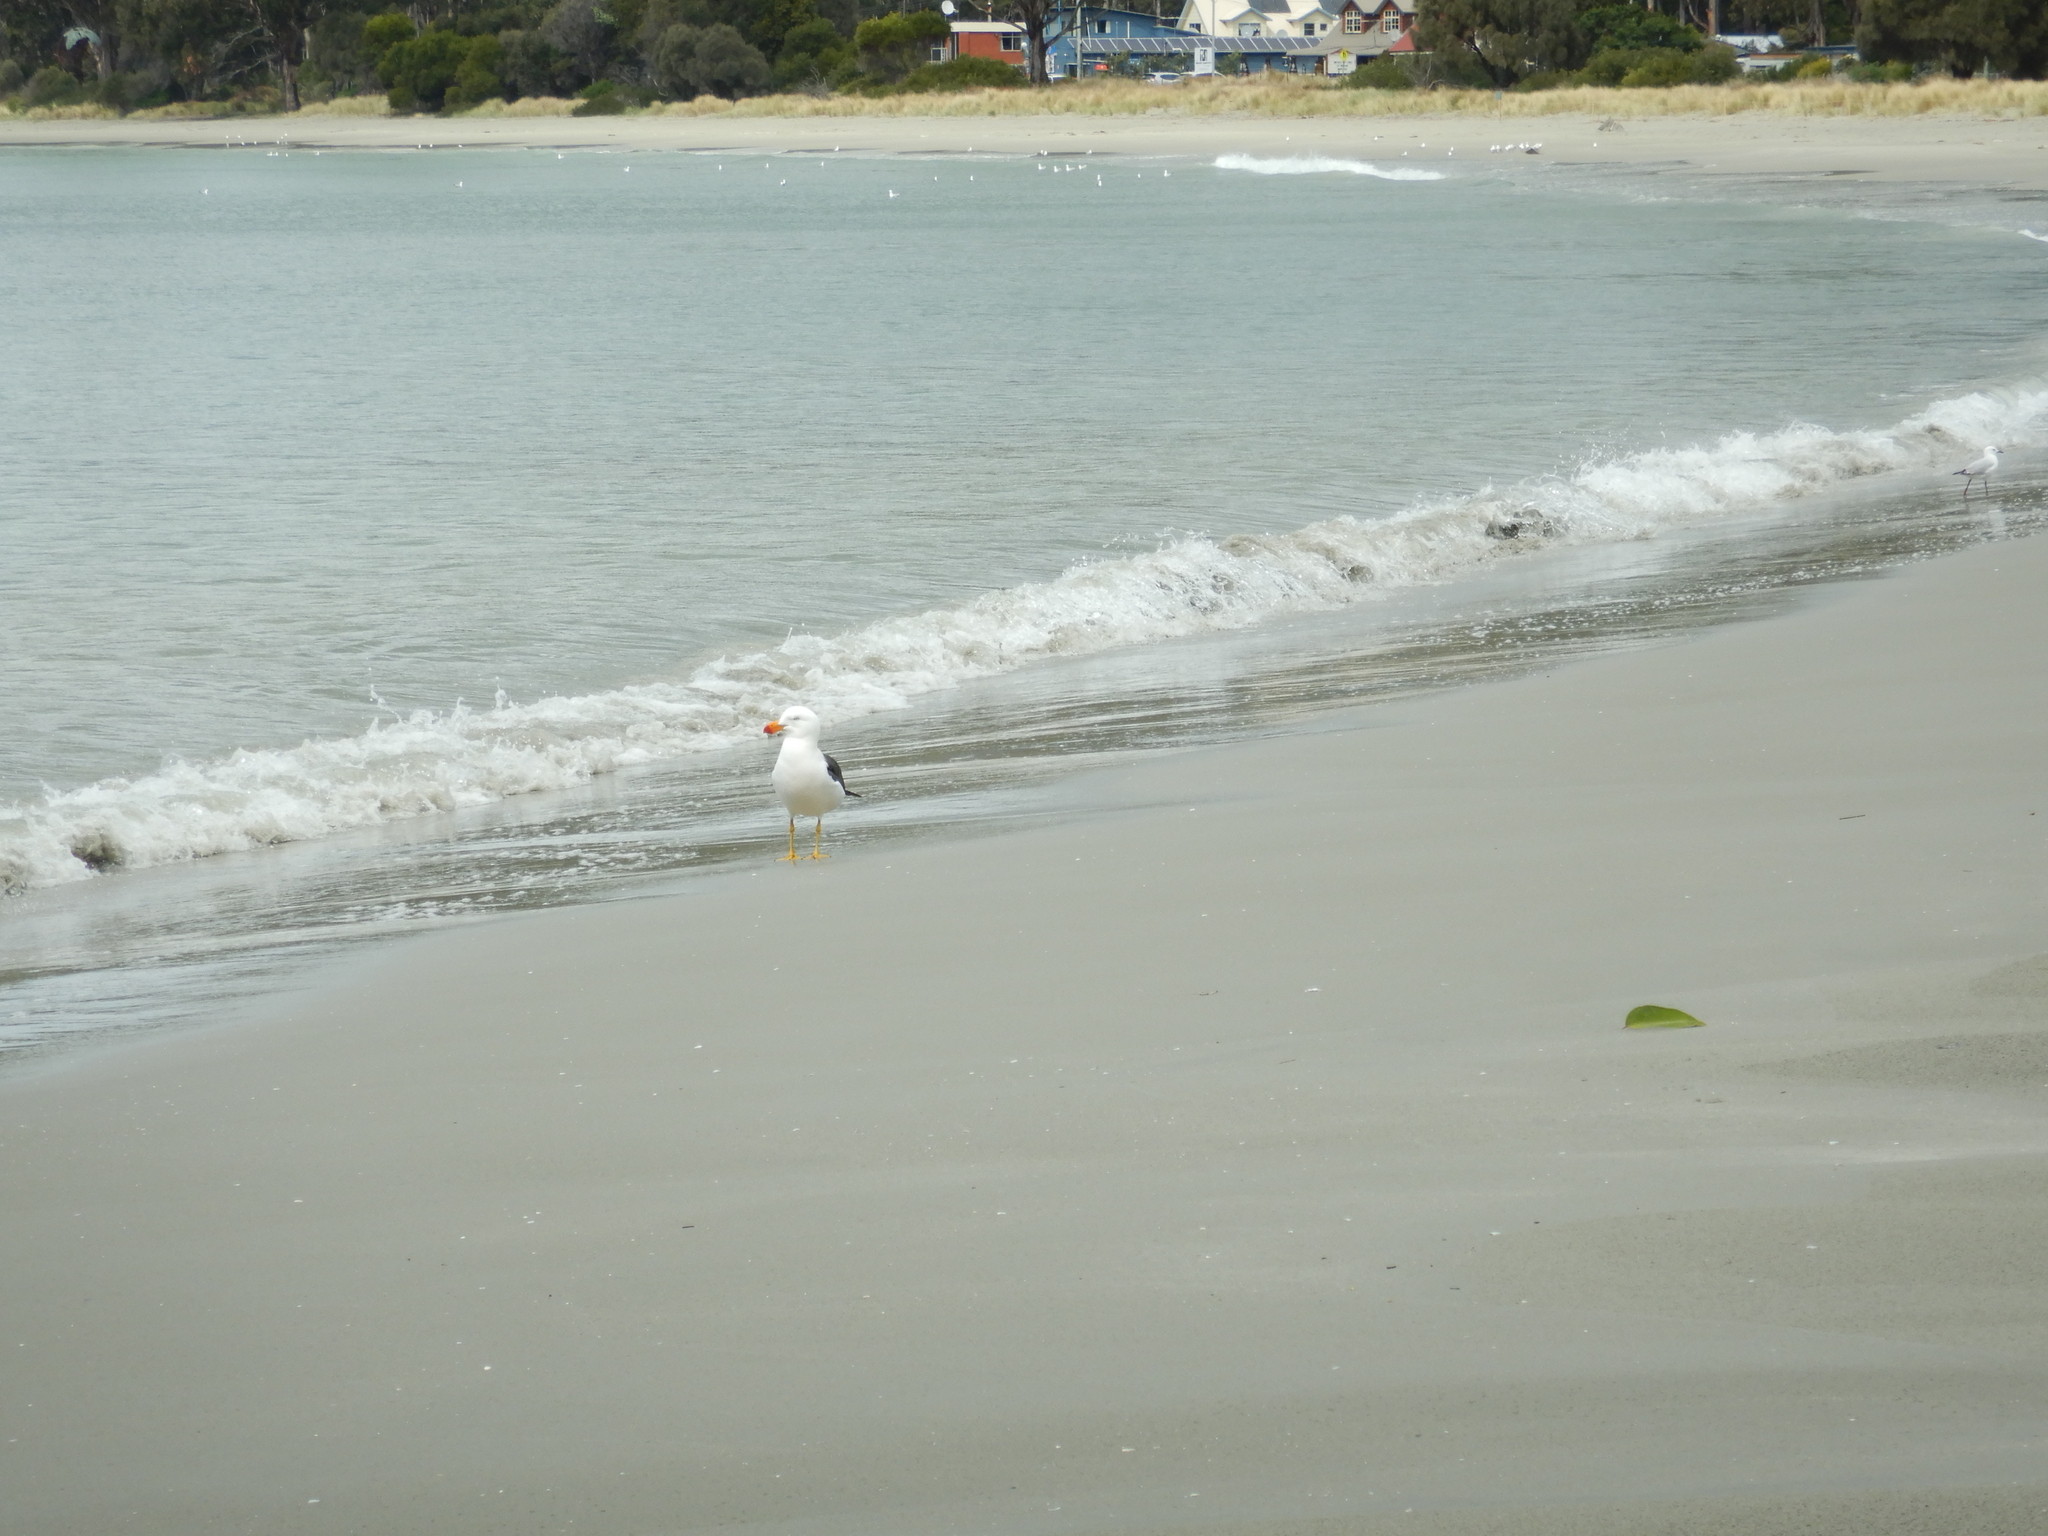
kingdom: Animalia
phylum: Chordata
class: Aves
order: Charadriiformes
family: Laridae
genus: Larus
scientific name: Larus pacificus
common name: Pacific gull
